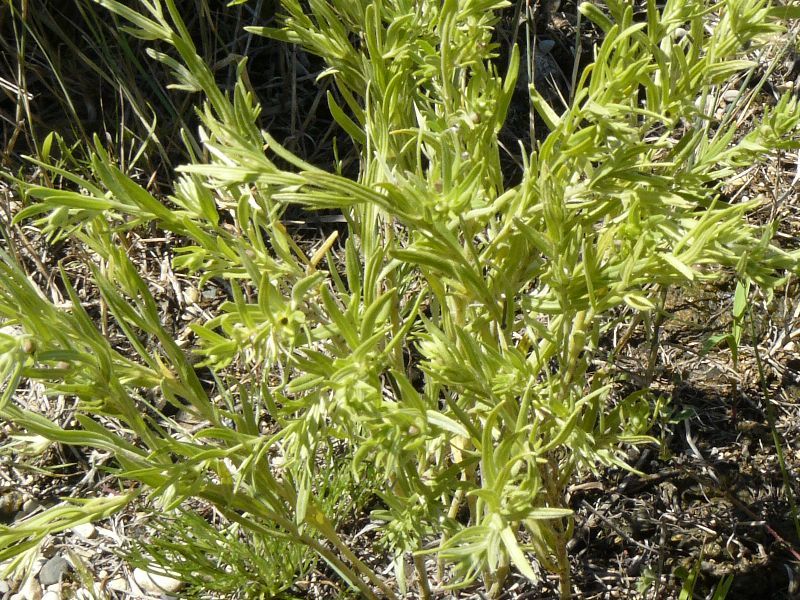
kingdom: Plantae
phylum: Tracheophyta
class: Magnoliopsida
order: Boraginales
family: Boraginaceae
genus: Lithospermum
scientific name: Lithospermum incisum
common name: Fringed gromwell
